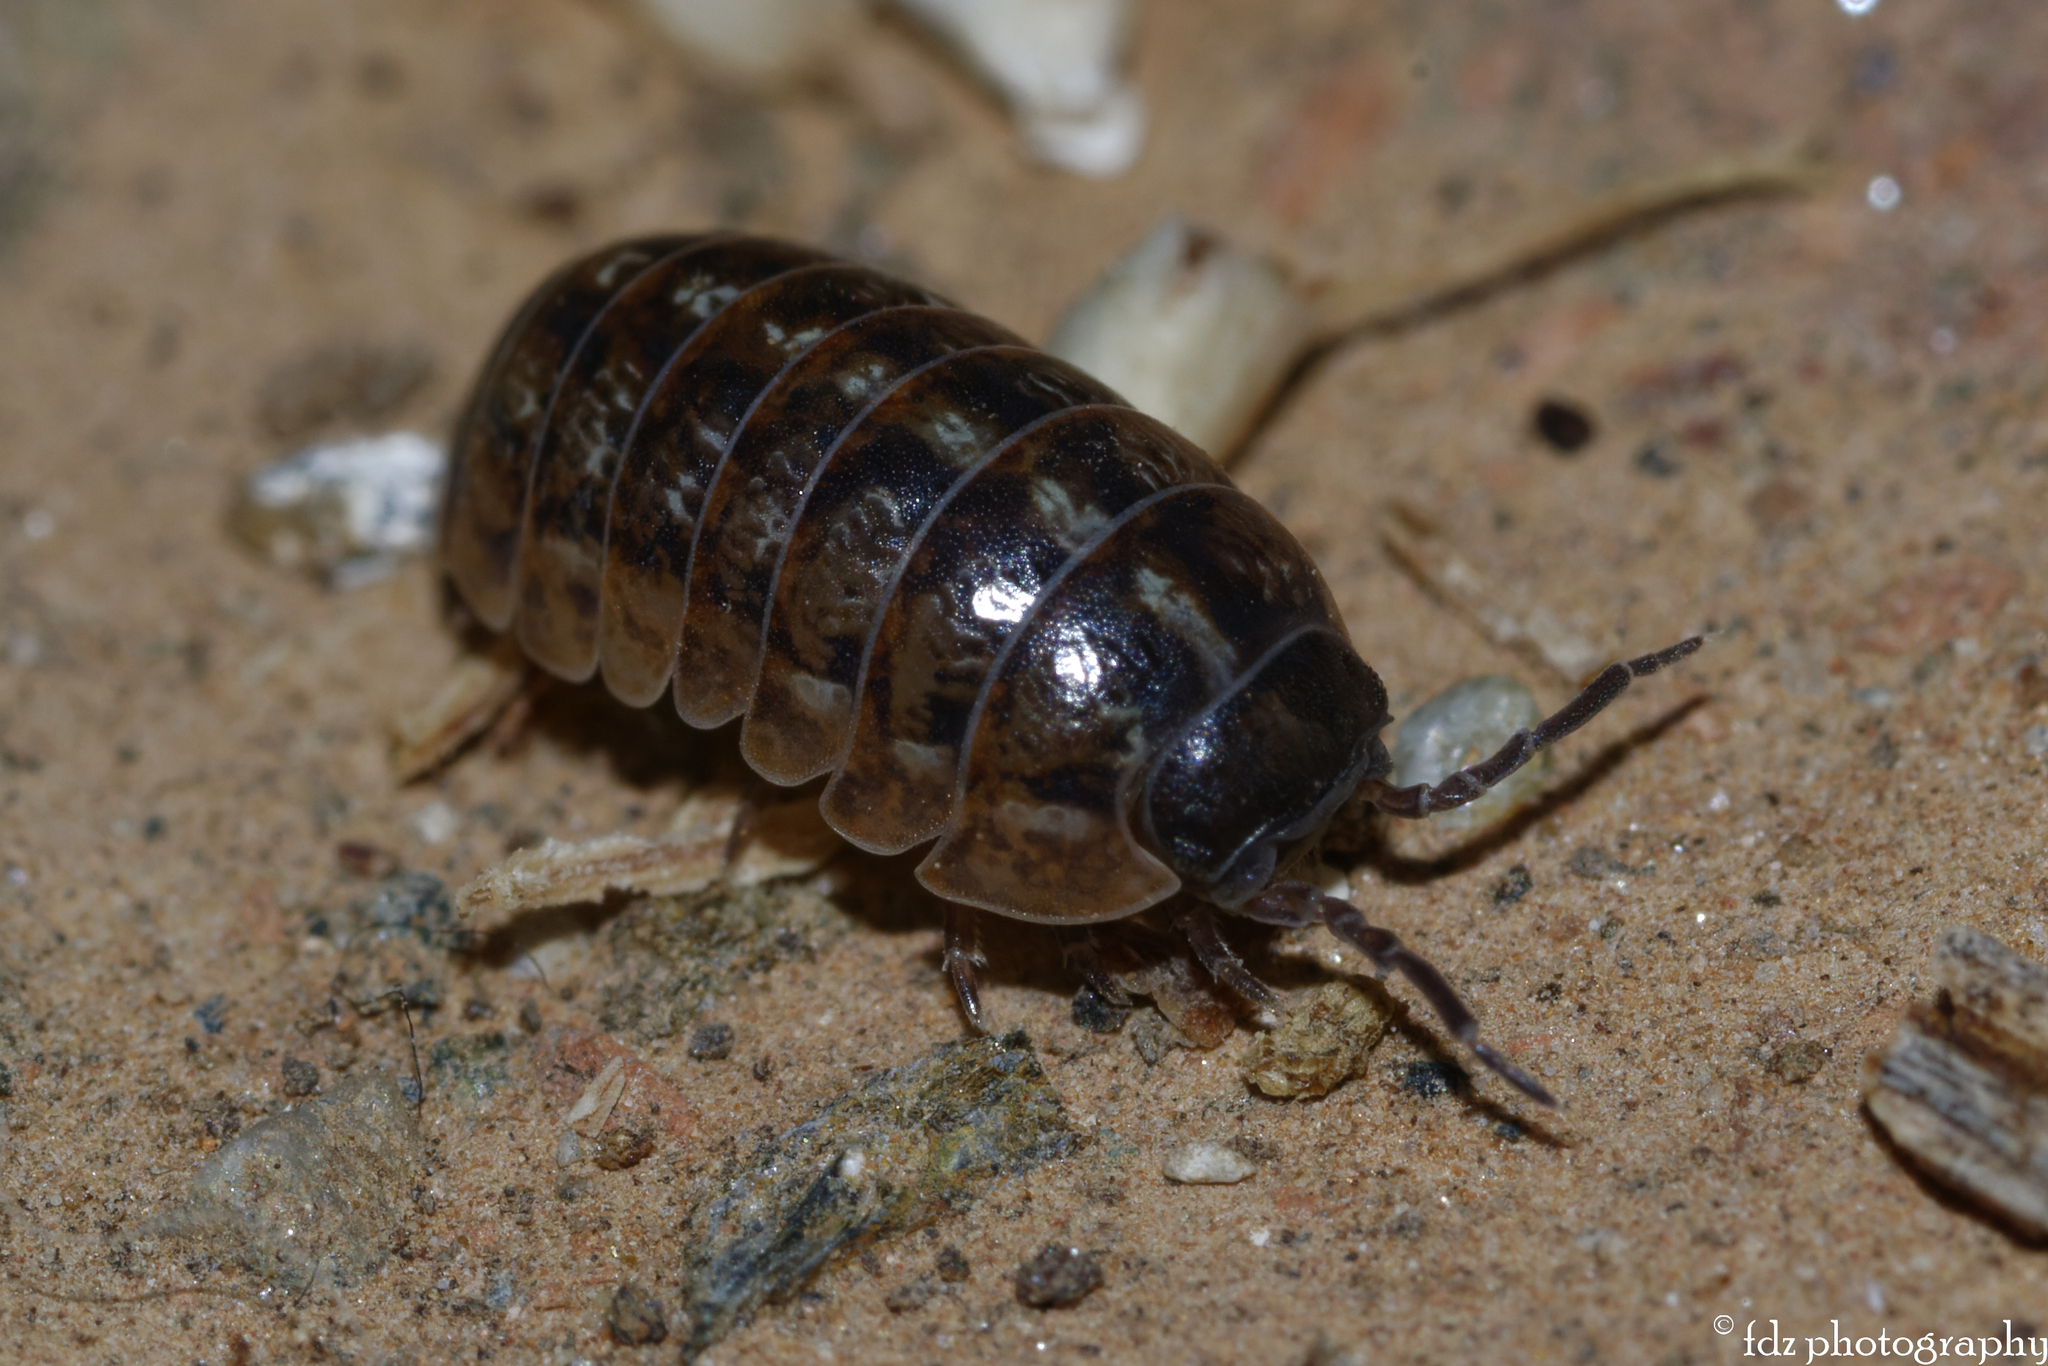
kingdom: Animalia
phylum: Arthropoda
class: Malacostraca
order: Isopoda
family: Armadillidiidae
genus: Armadillidium
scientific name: Armadillidium vulgare
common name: Common pill woodlouse
